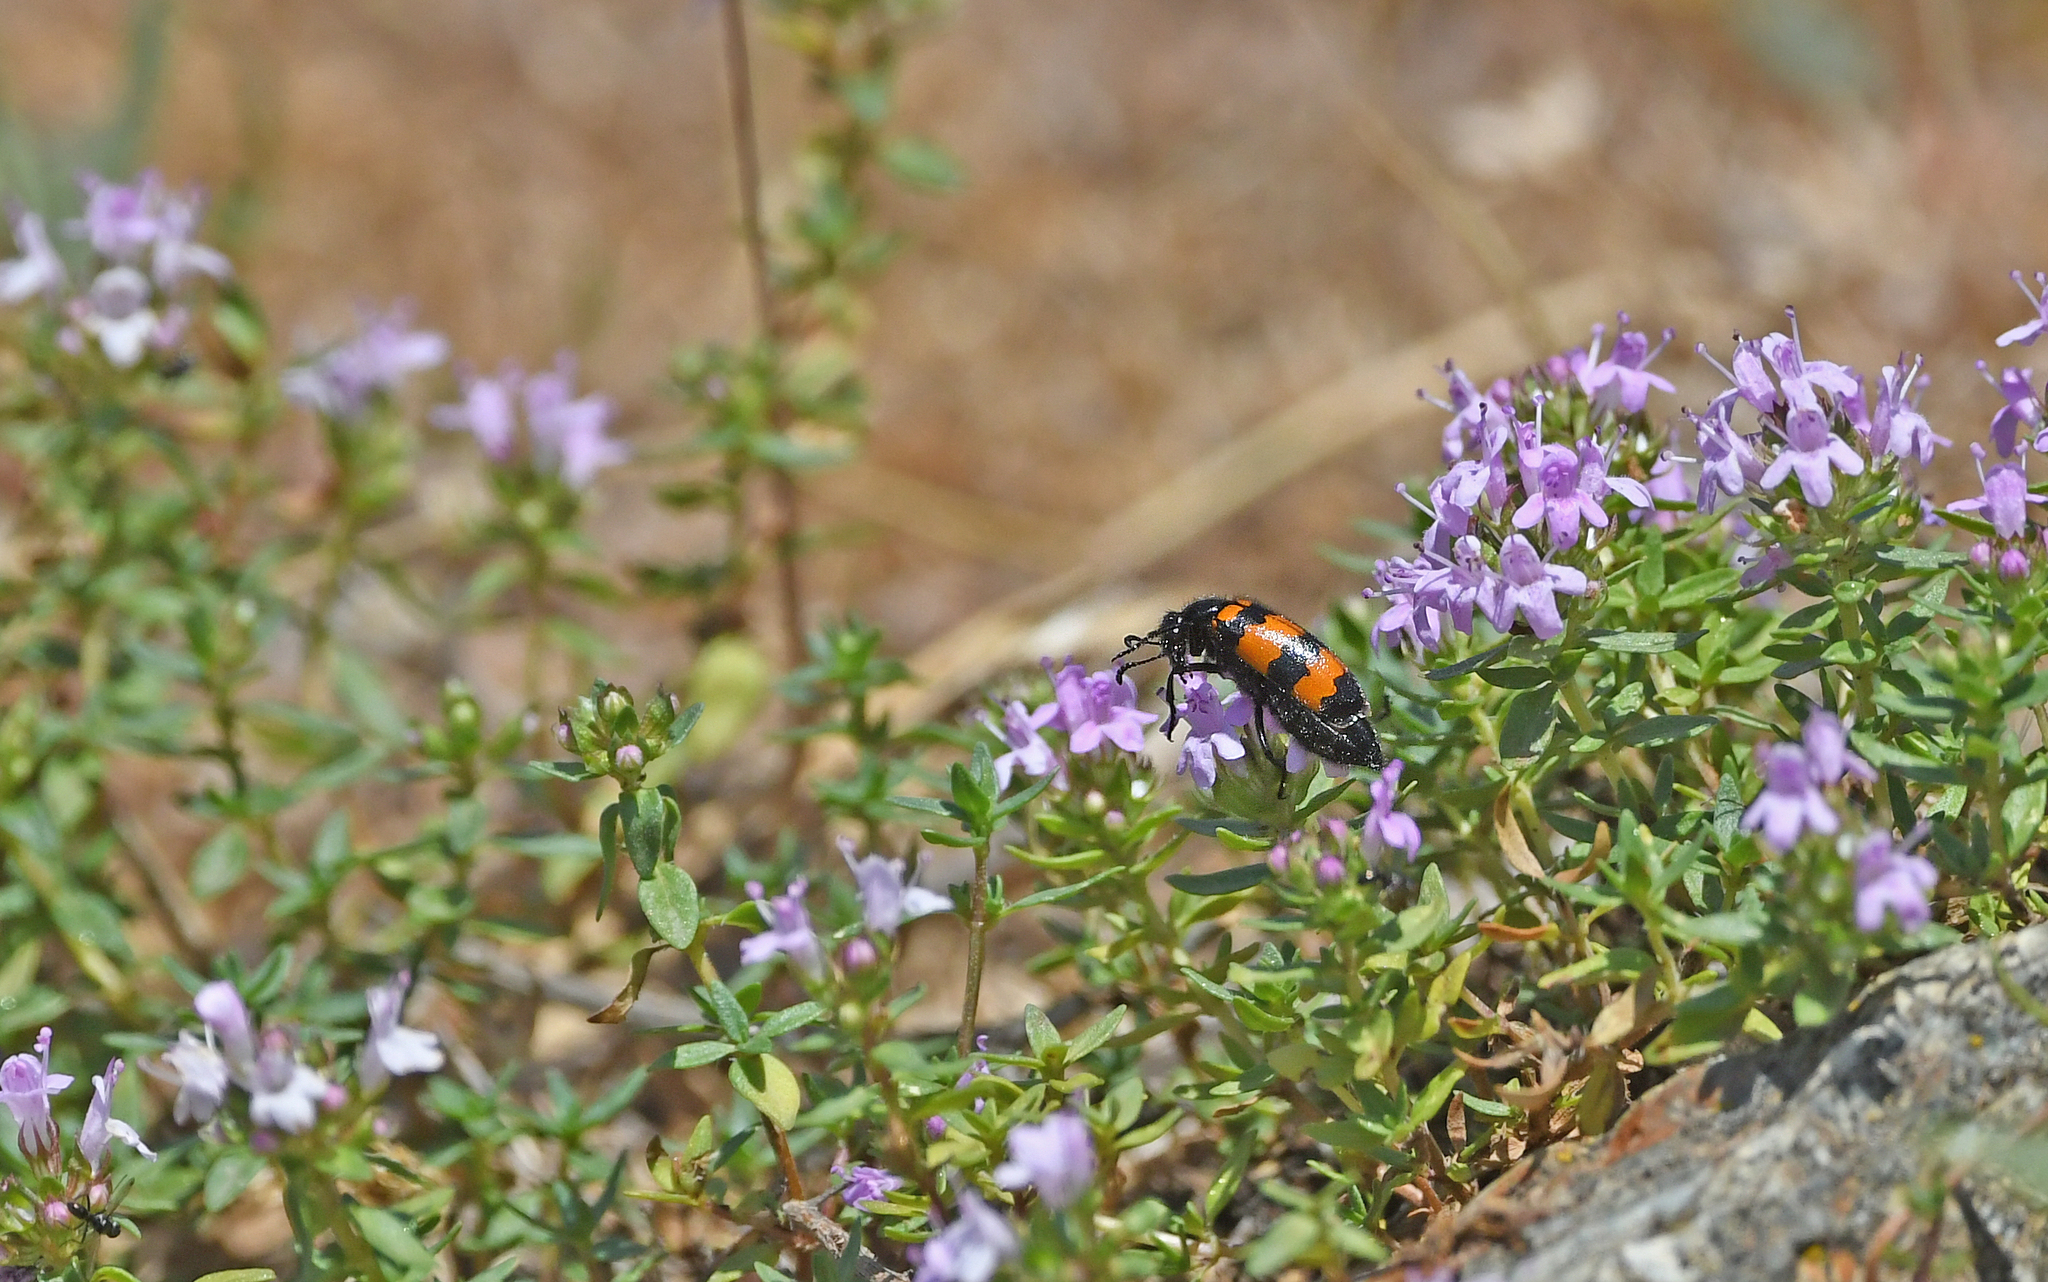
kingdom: Animalia
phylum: Arthropoda
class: Insecta
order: Coleoptera
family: Meloidae
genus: Mylabris
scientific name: Mylabris variabilis
